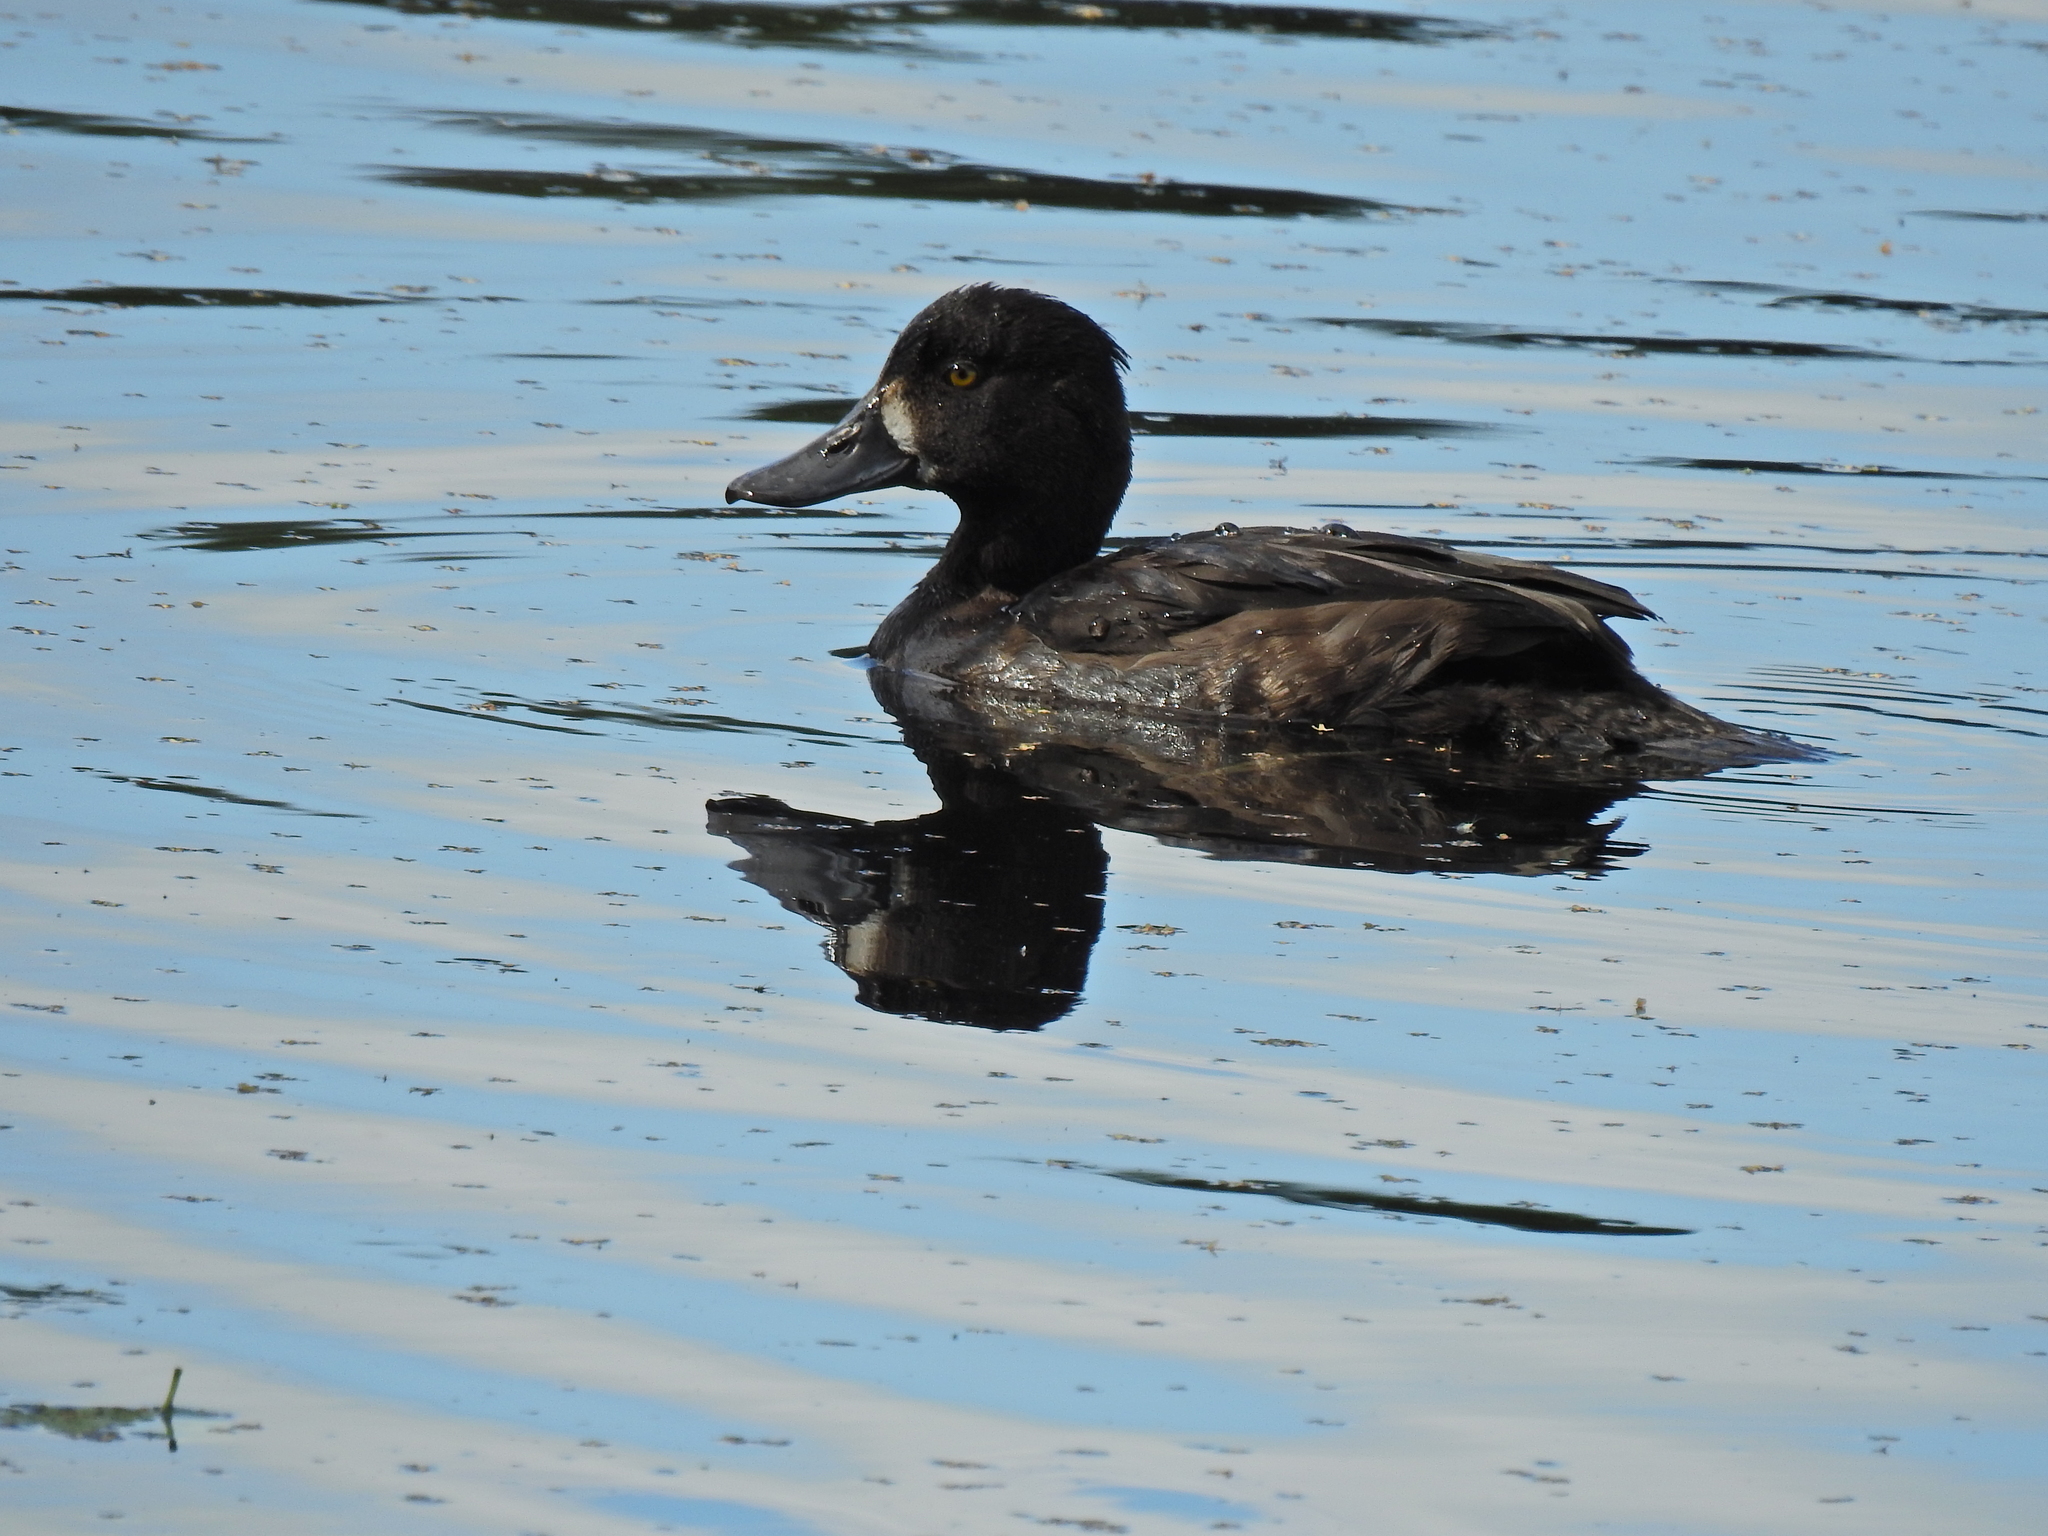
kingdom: Animalia
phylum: Chordata
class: Aves
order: Anseriformes
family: Anatidae
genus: Aythya
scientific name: Aythya fuligula
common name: Tufted duck
